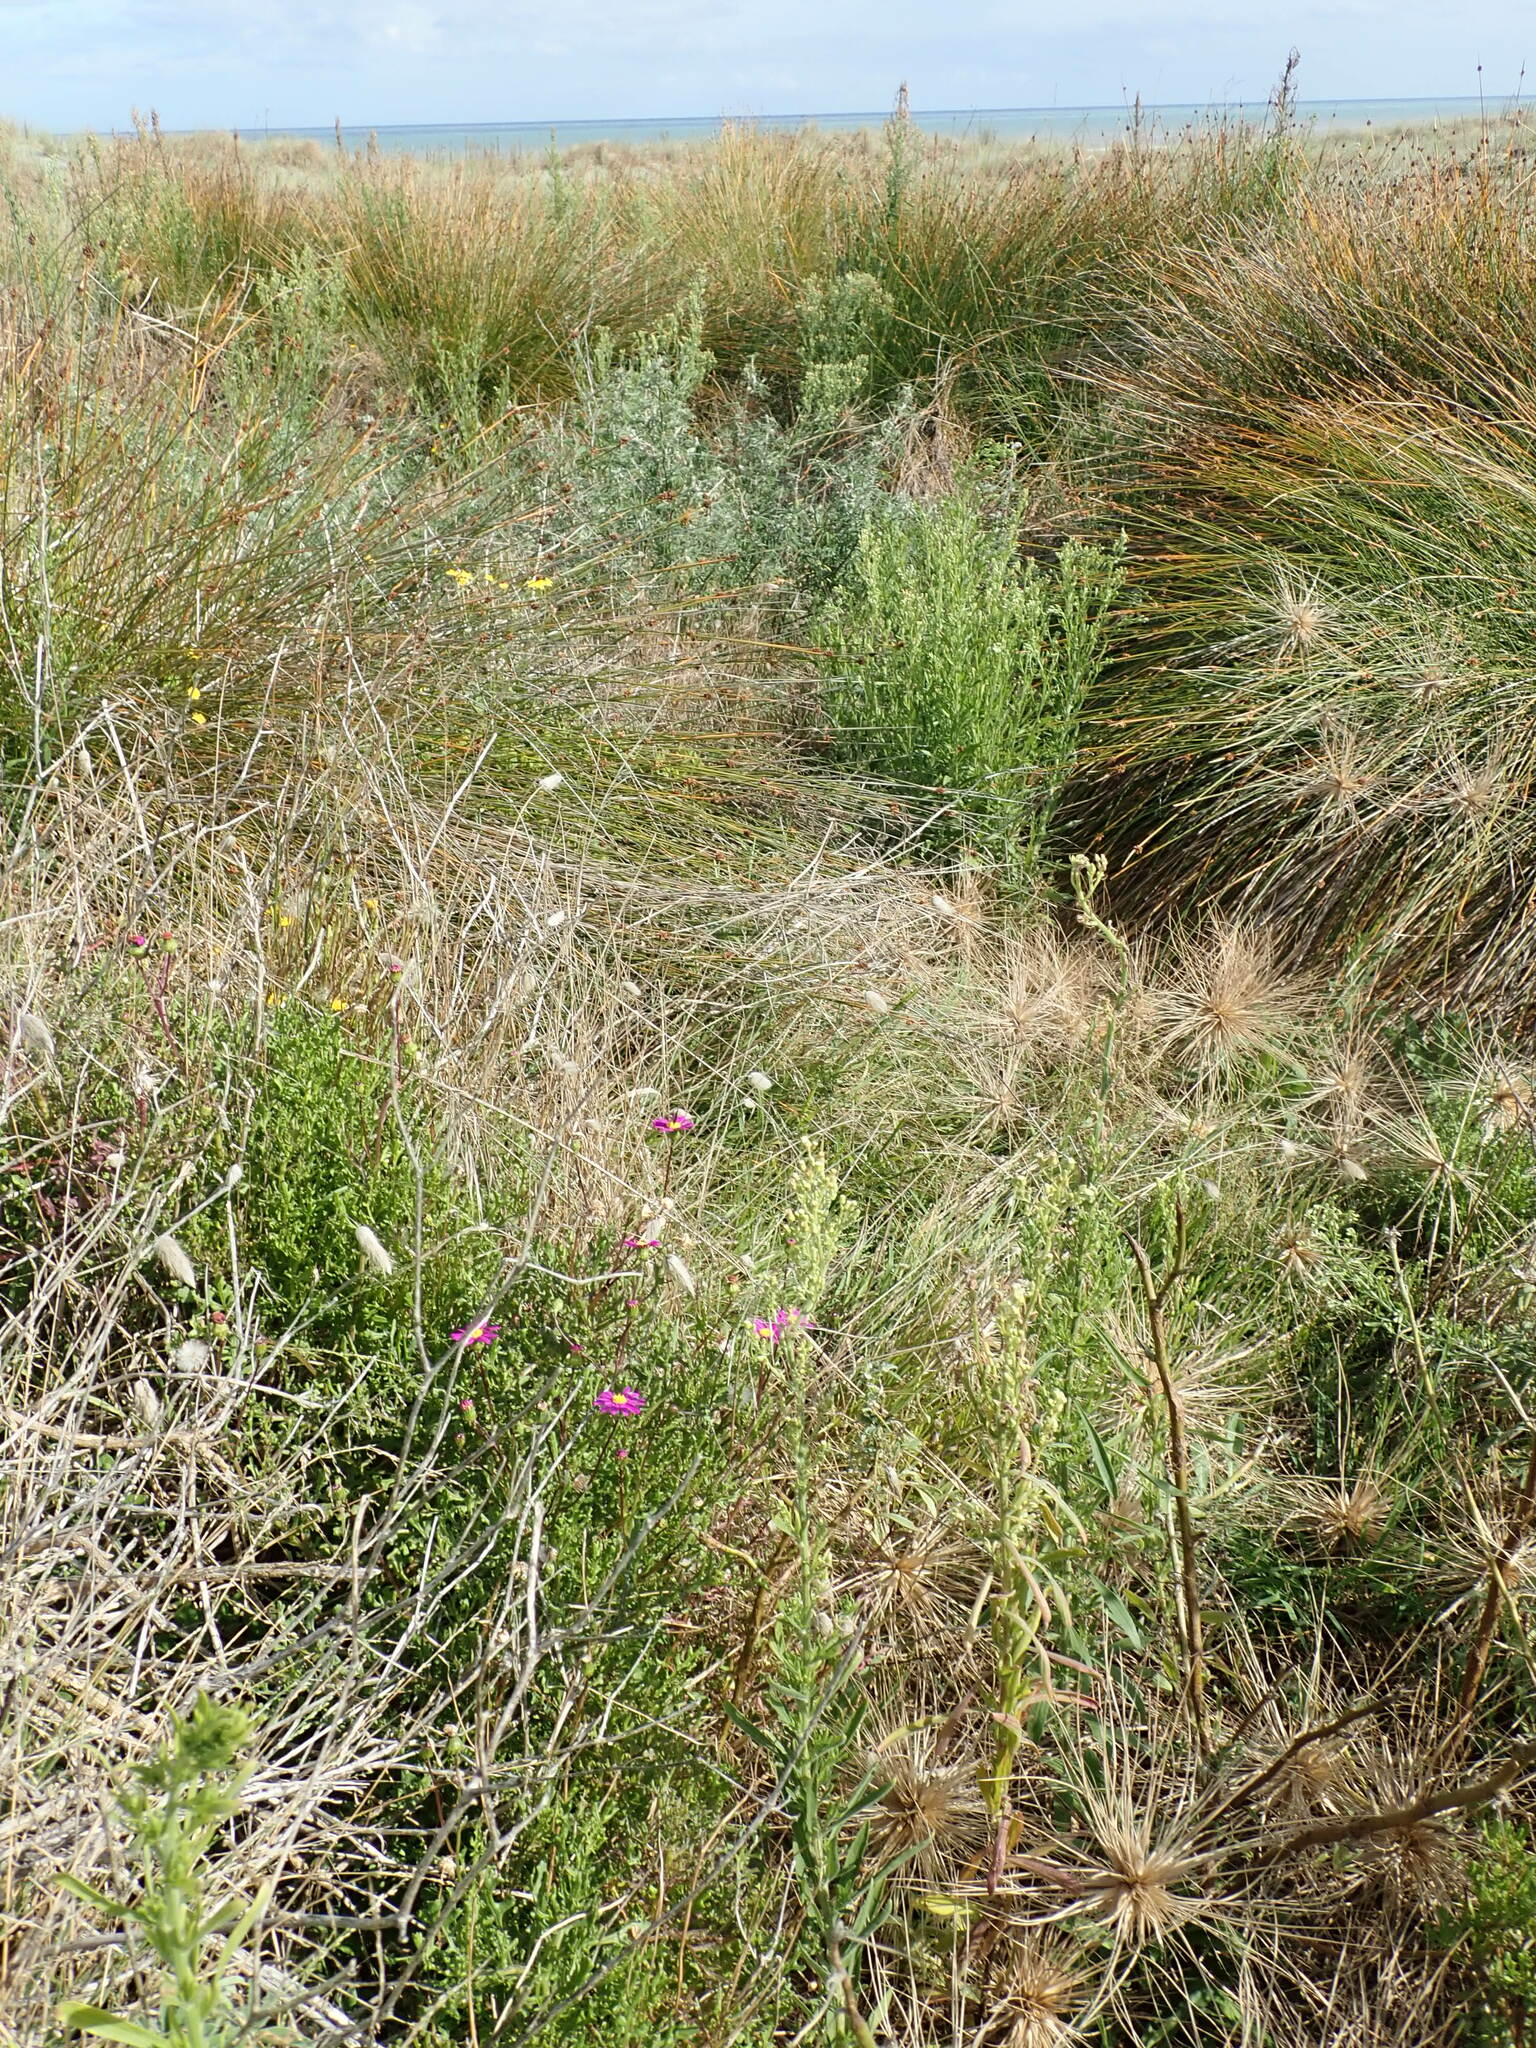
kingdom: Plantae
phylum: Tracheophyta
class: Magnoliopsida
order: Asterales
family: Asteraceae
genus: Senecio
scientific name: Senecio elegans
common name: Purple groundsel
